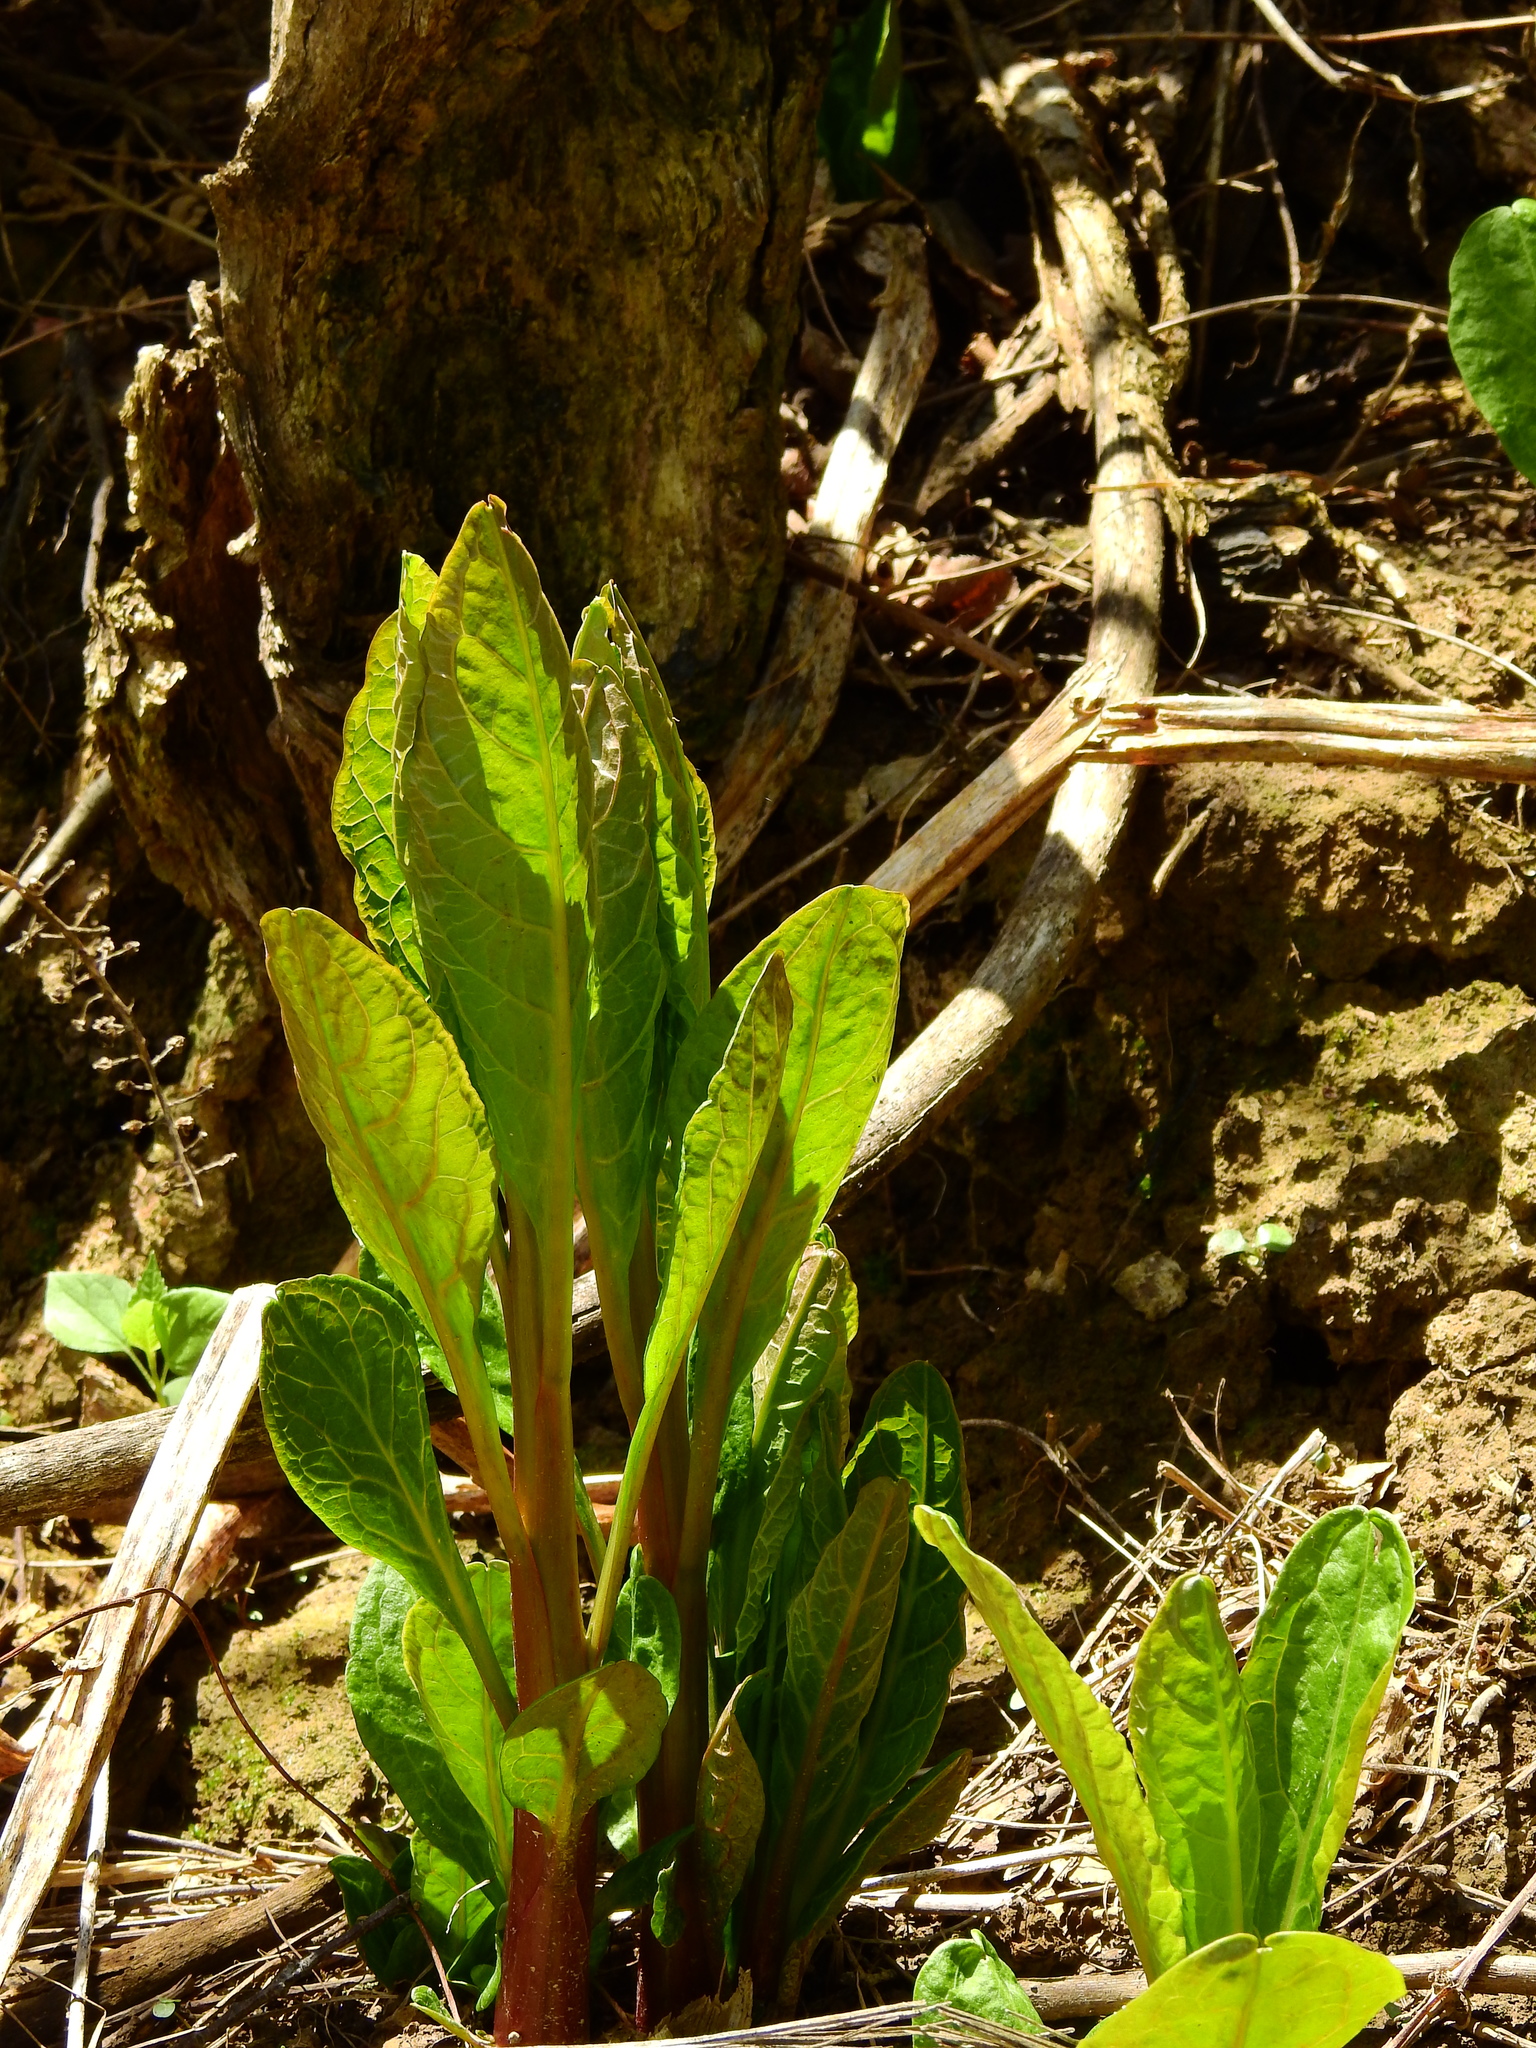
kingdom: Plantae
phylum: Tracheophyta
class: Magnoliopsida
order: Caryophyllales
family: Phytolaccaceae
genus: Phytolacca
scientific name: Phytolacca americana
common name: American pokeweed
